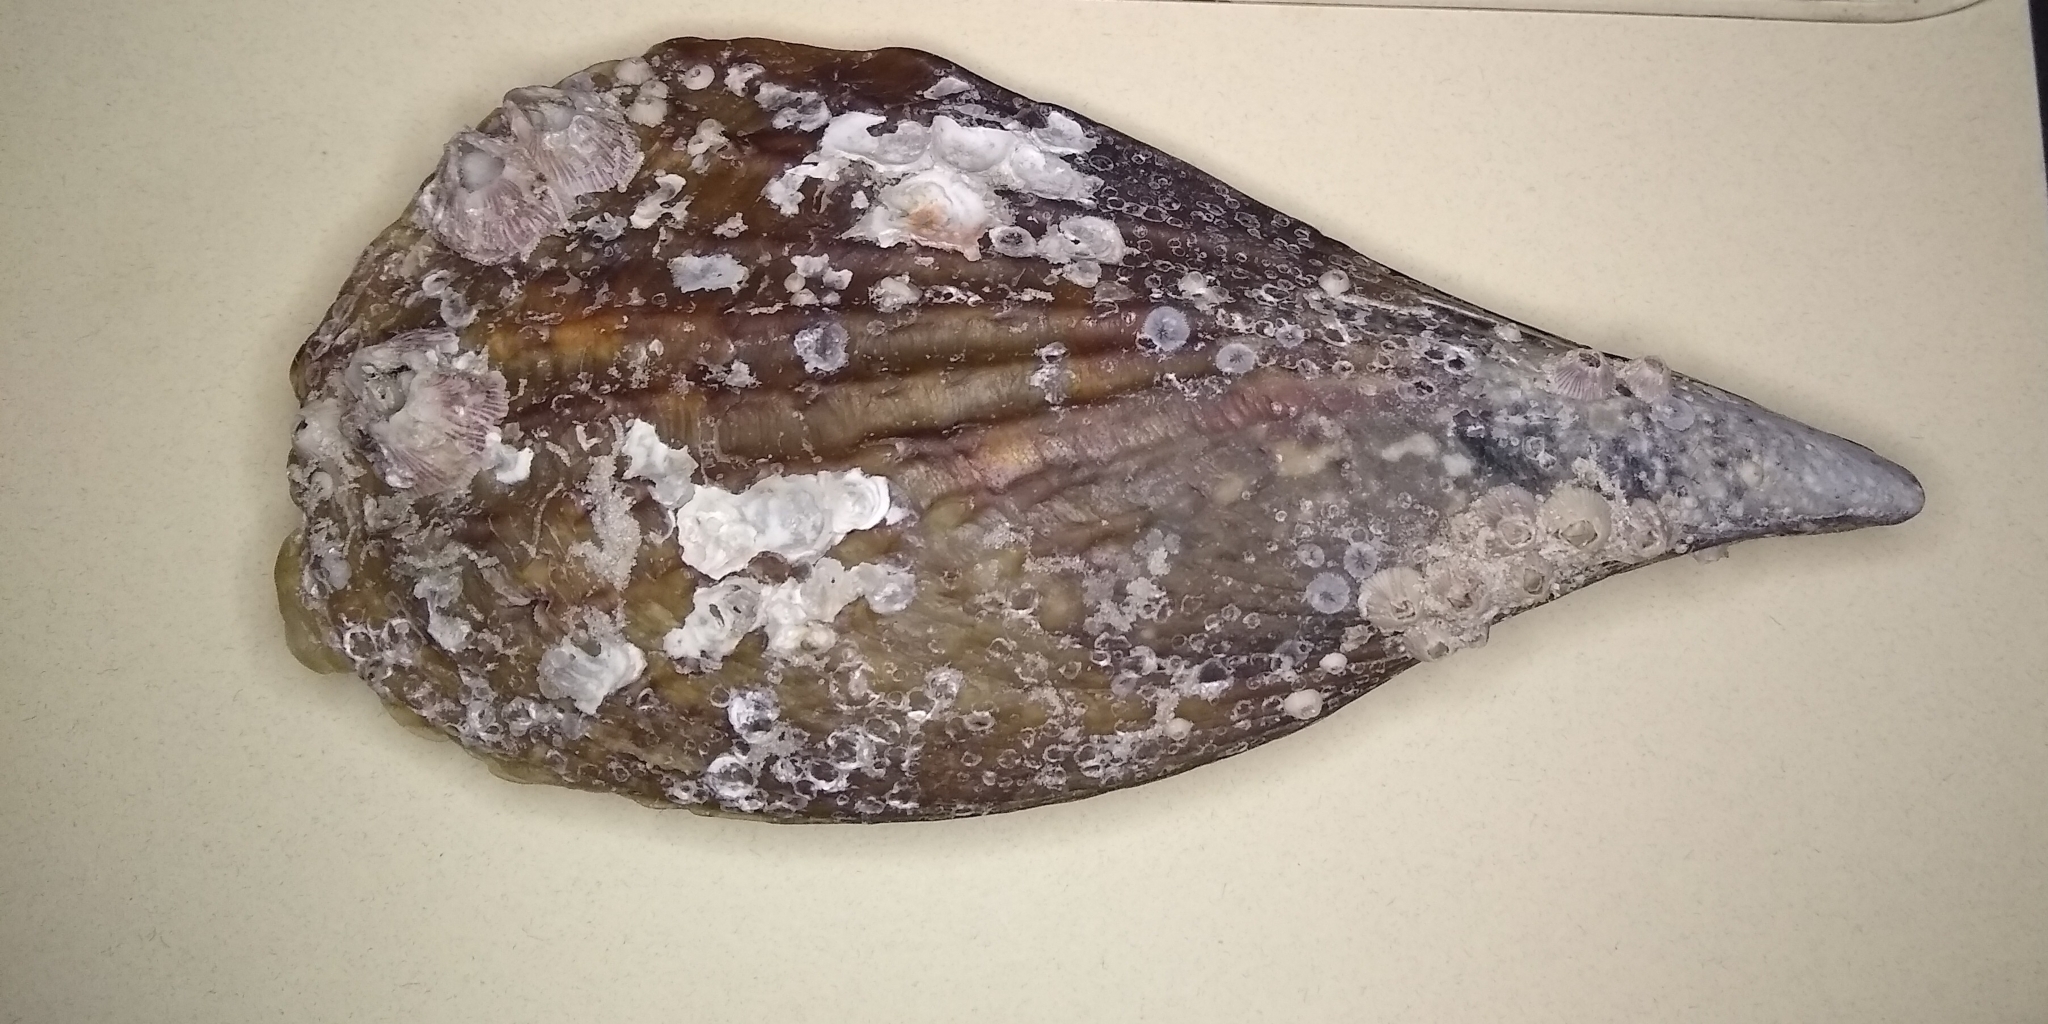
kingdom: Animalia
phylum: Mollusca
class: Bivalvia
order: Ostreida
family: Pinnidae
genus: Atrina
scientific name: Atrina rigida
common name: Stiff penshell
